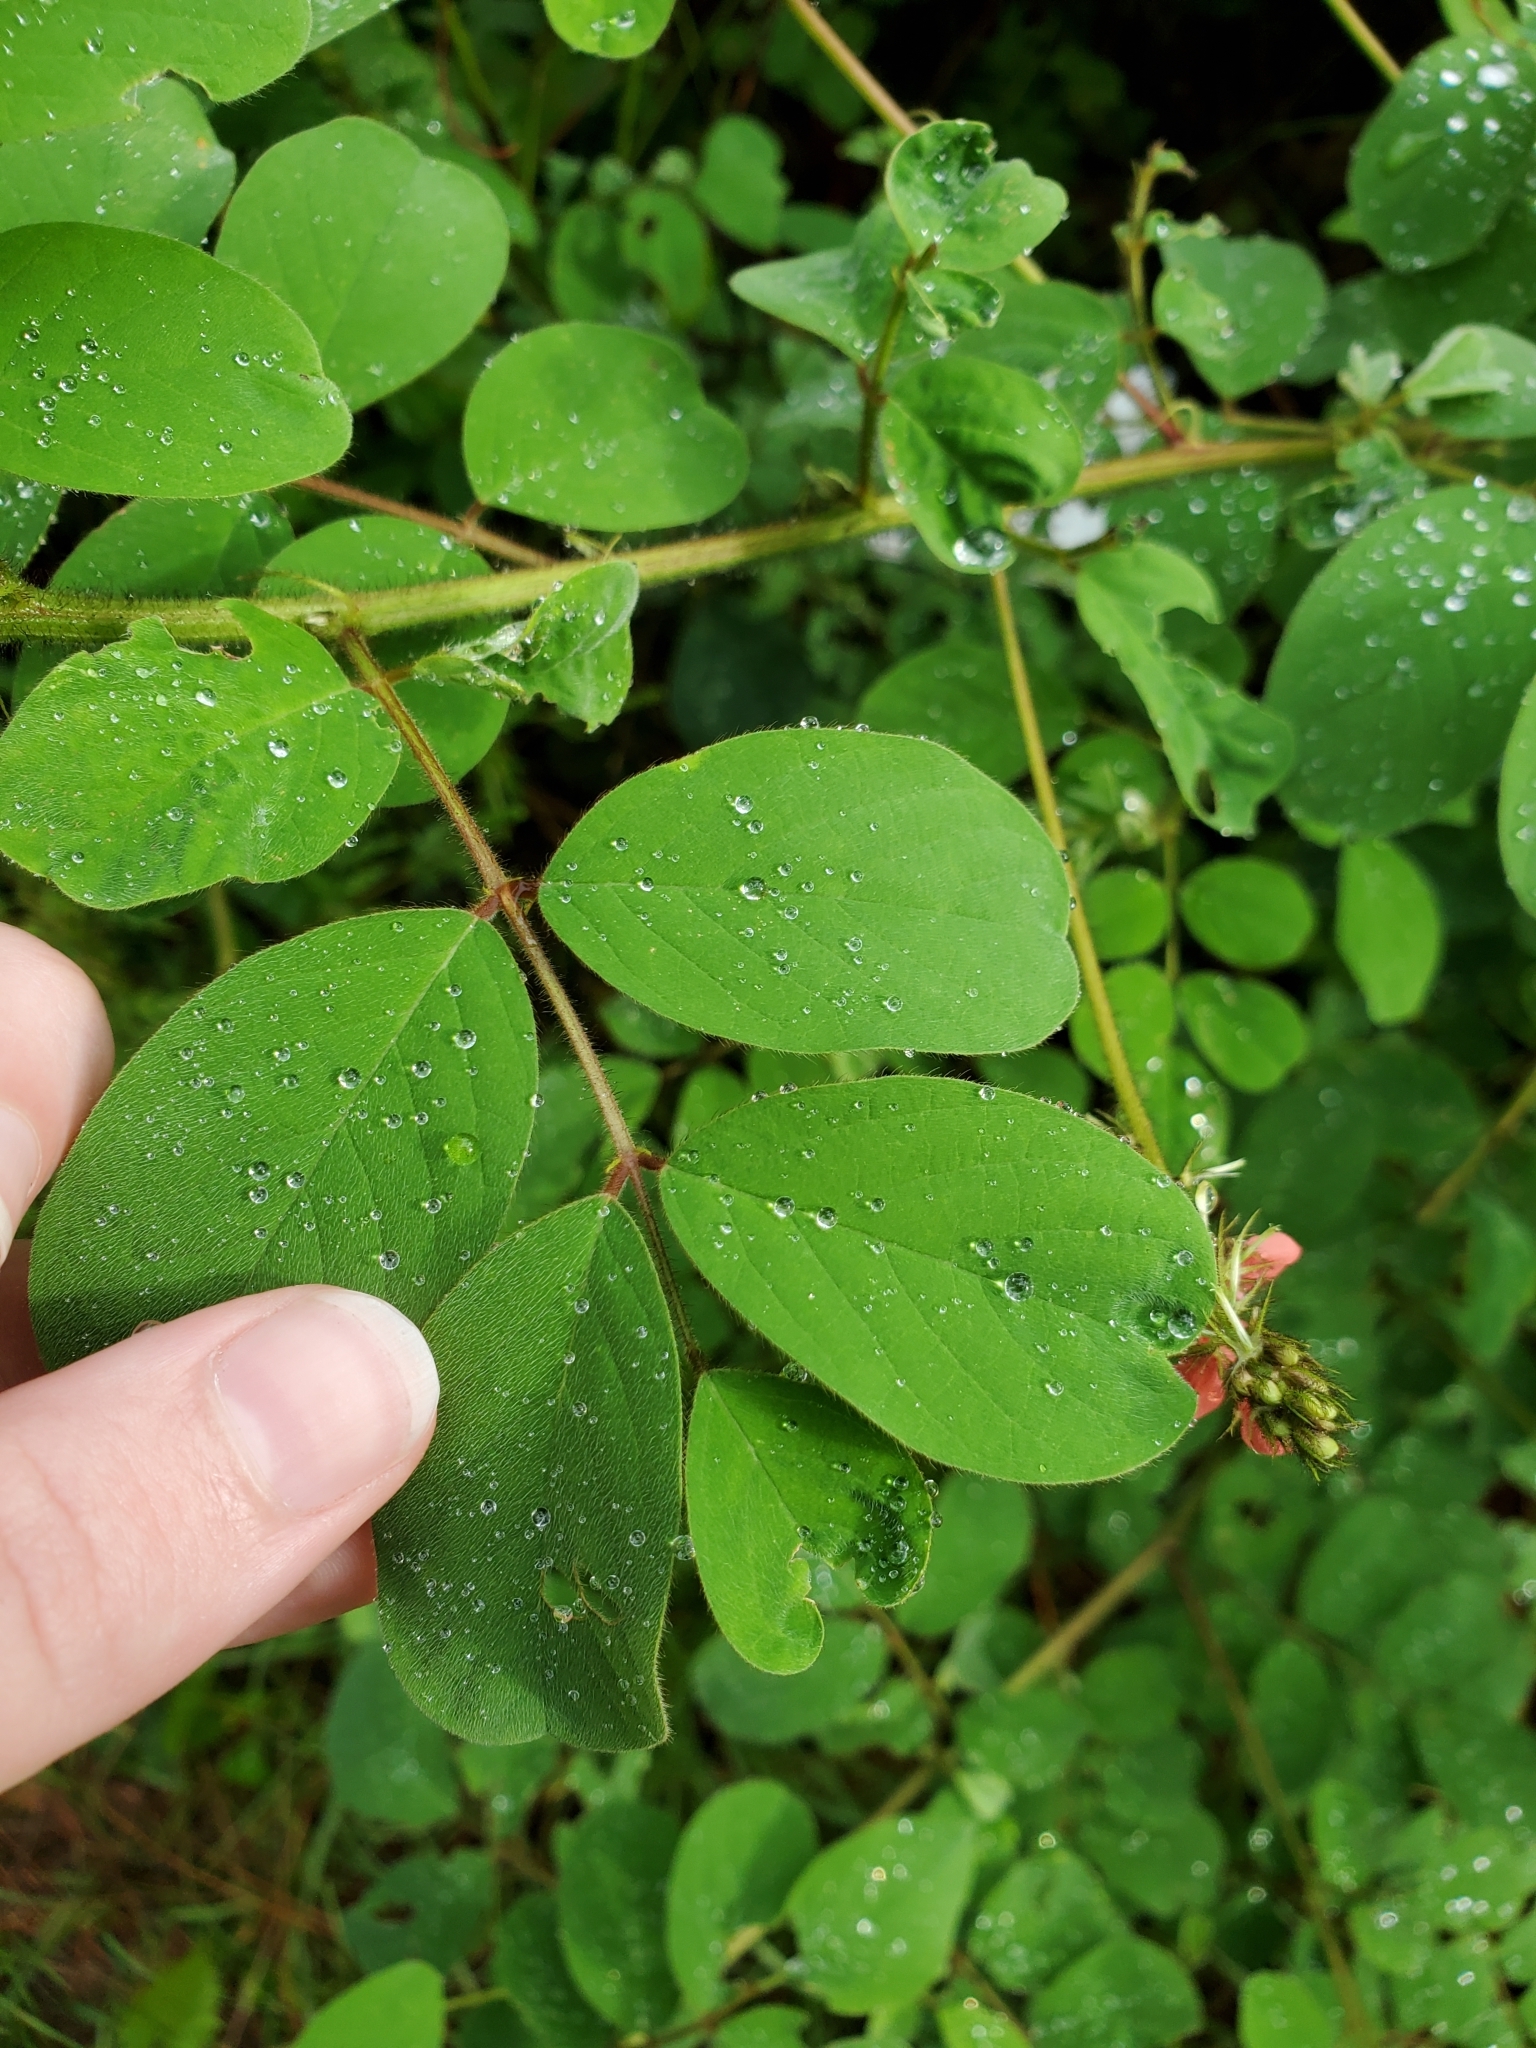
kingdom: Plantae
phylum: Tracheophyta
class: Magnoliopsida
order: Fabales
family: Fabaceae
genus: Indigofera
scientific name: Indigofera hirsuta
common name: Hairy indigo
